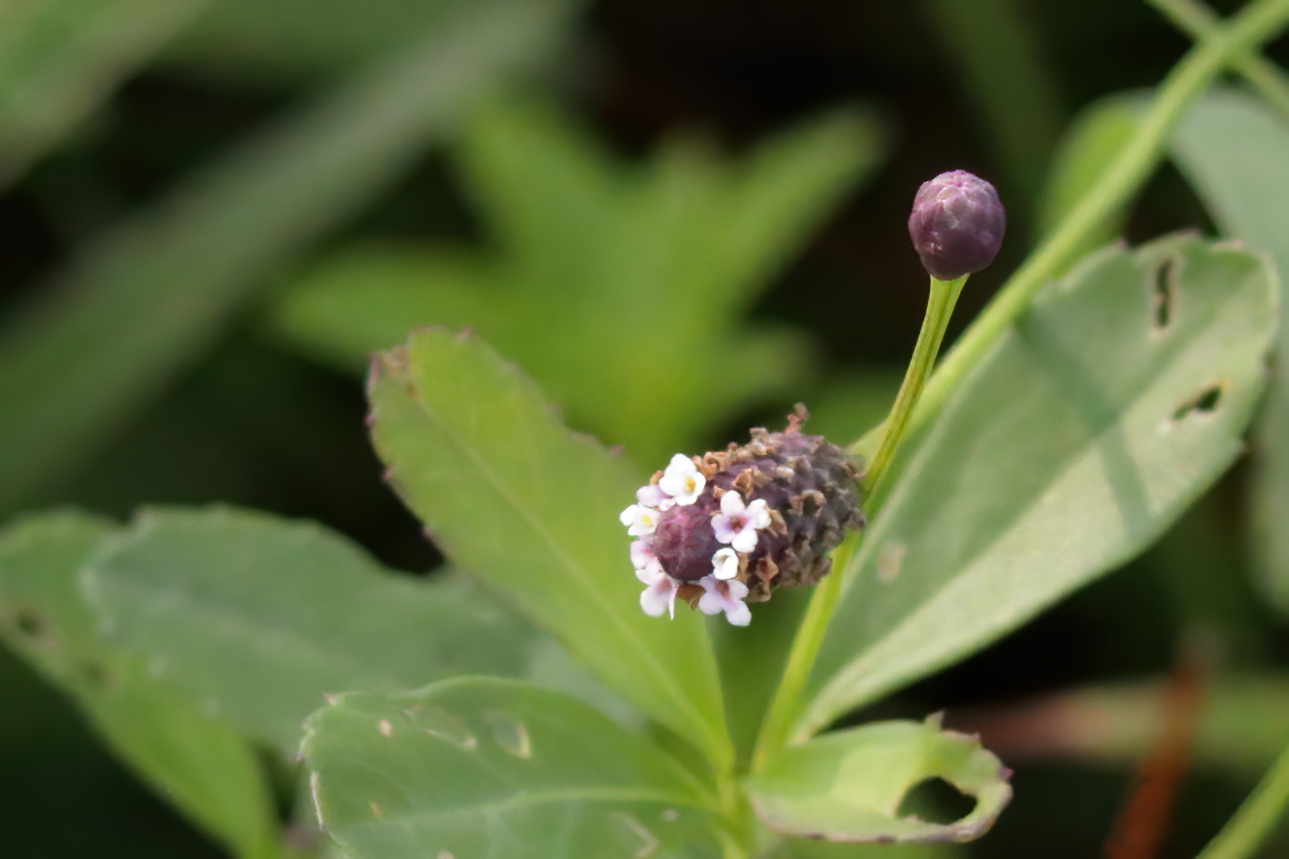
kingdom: Plantae
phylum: Tracheophyta
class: Magnoliopsida
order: Lamiales
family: Verbenaceae
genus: Phyla
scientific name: Phyla nodiflora
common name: Frogfruit
